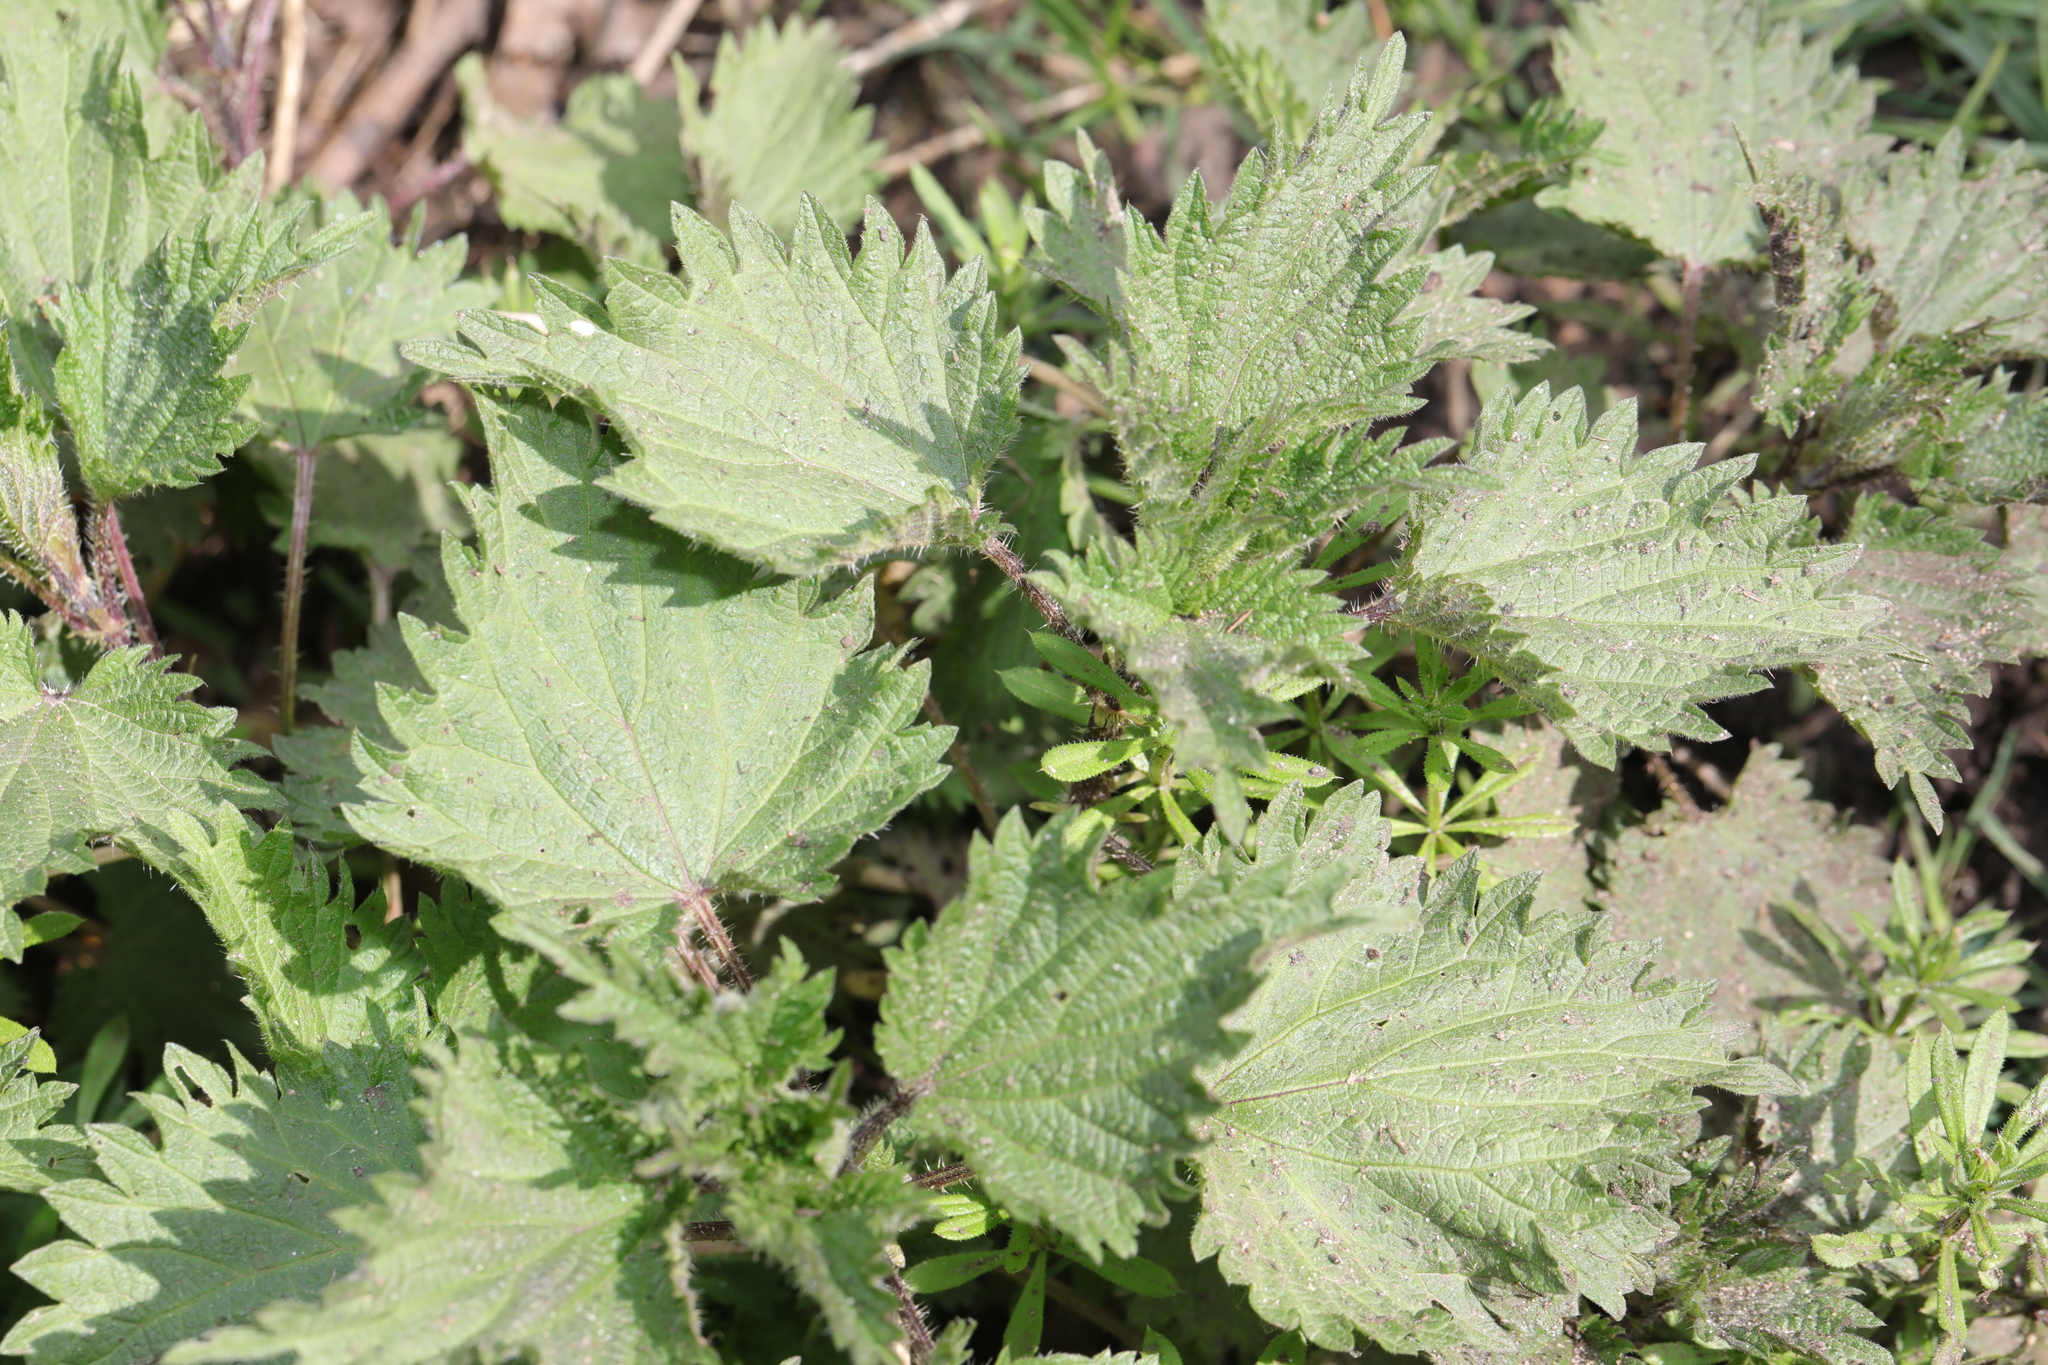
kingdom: Plantae
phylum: Tracheophyta
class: Magnoliopsida
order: Rosales
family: Urticaceae
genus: Urtica
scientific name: Urtica dioica
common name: Common nettle
